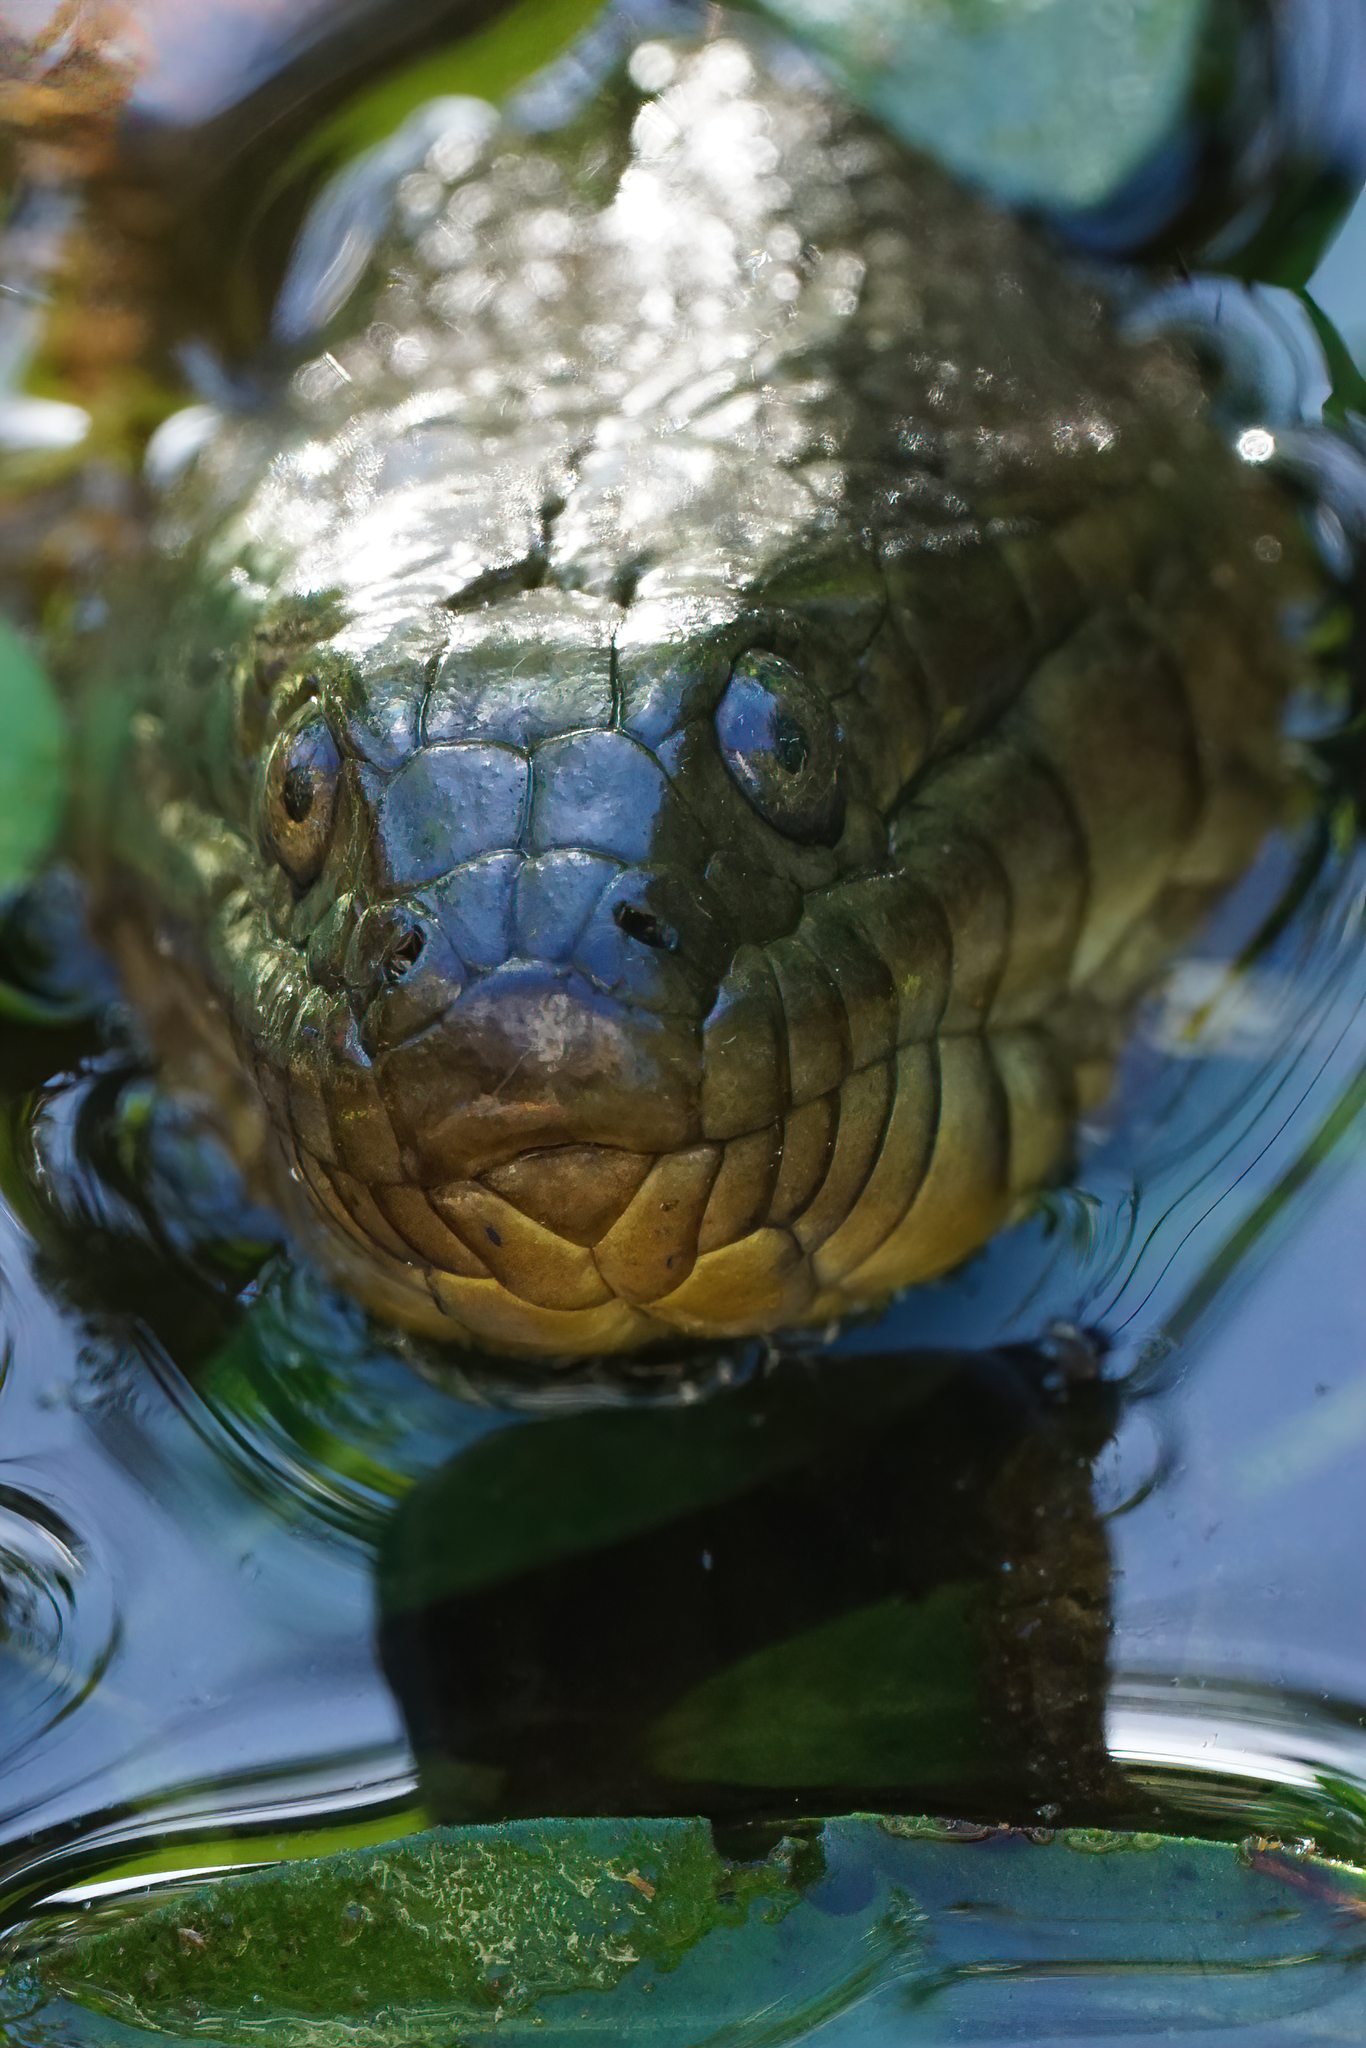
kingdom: Animalia
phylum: Chordata
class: Squamata
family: Colubridae
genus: Nerodia
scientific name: Nerodia floridana
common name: Florida green watersnake
